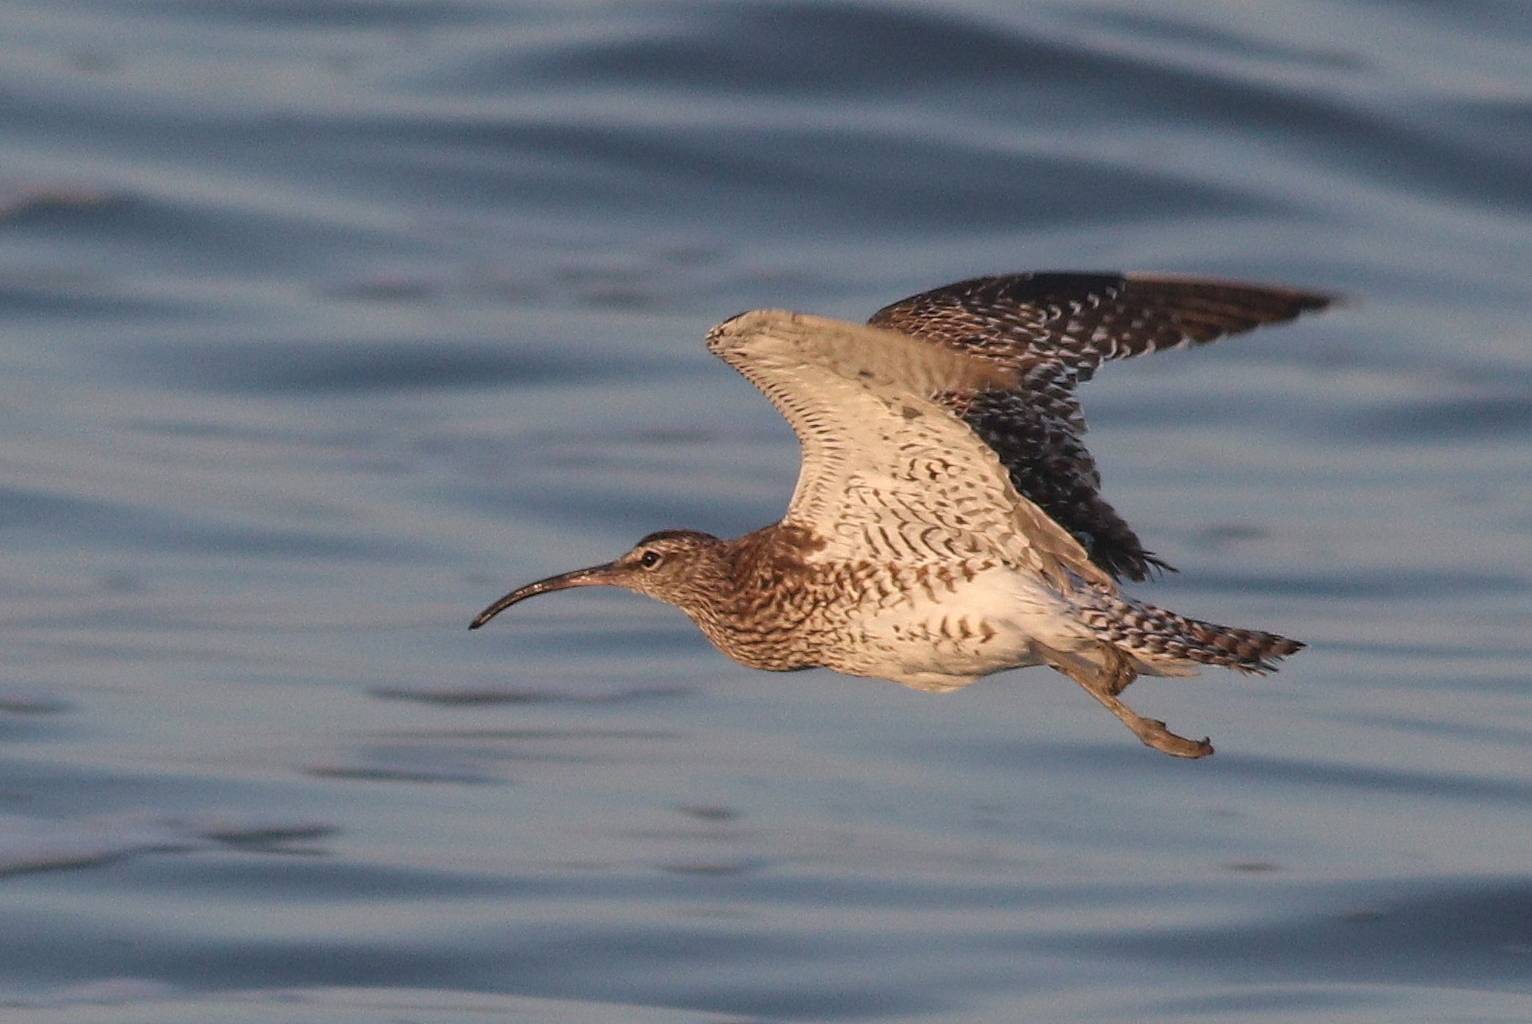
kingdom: Animalia
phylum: Chordata
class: Aves
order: Charadriiformes
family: Scolopacidae
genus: Numenius
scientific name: Numenius phaeopus
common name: Whimbrel
